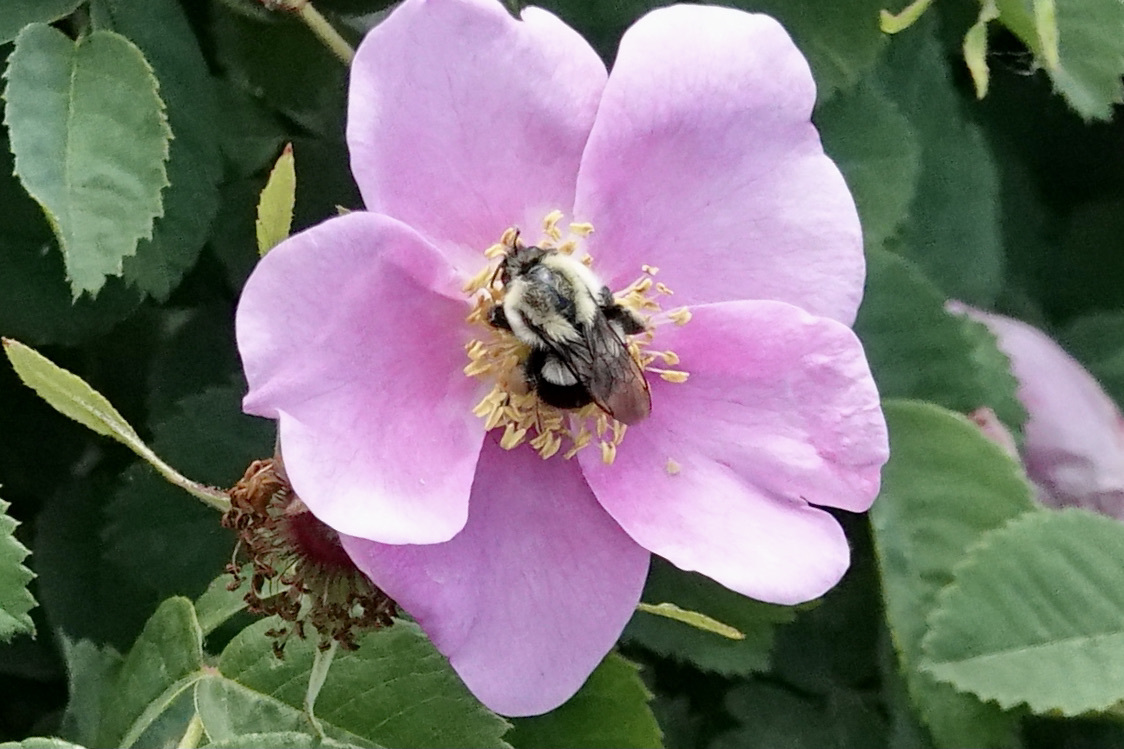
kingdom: Animalia
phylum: Arthropoda
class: Insecta
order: Hymenoptera
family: Apidae
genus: Bombus
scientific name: Bombus impatiens
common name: Common eastern bumble bee
